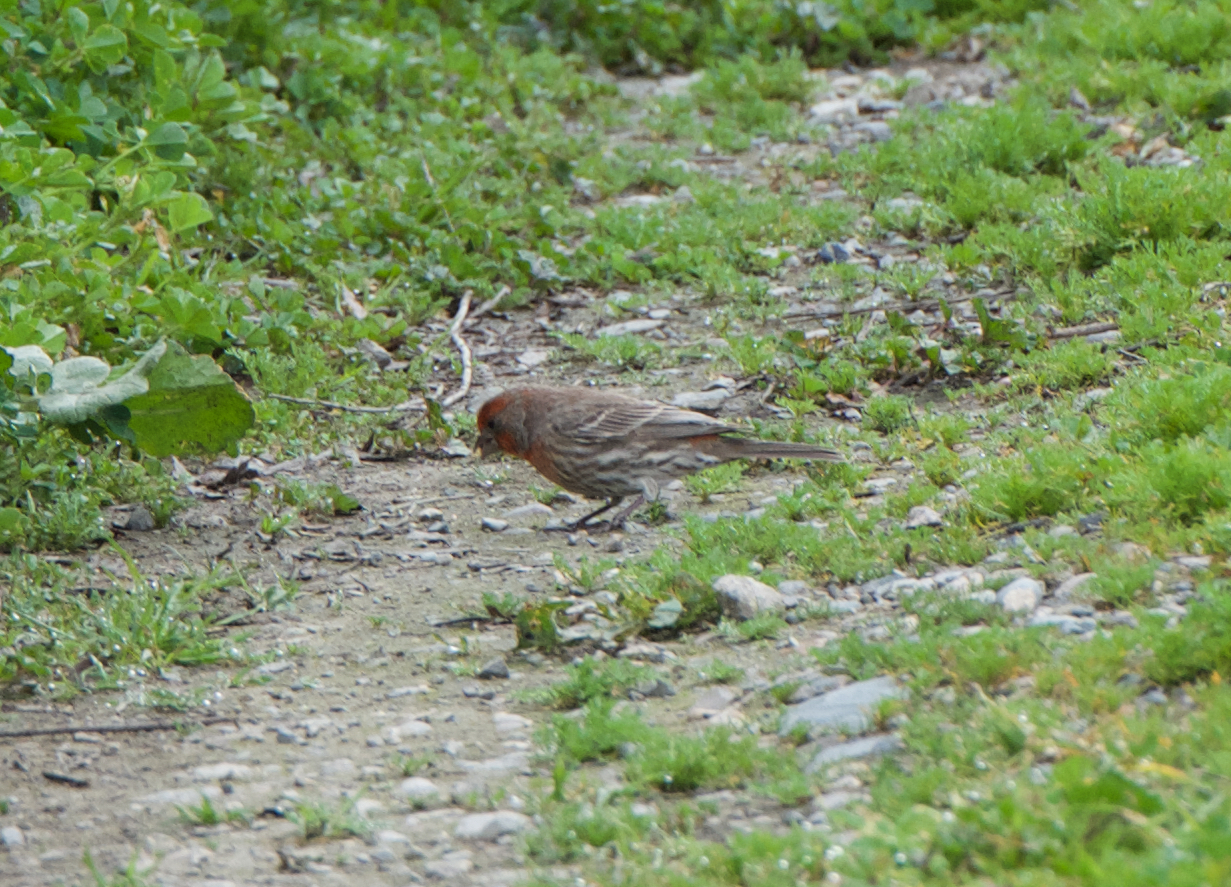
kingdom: Animalia
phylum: Chordata
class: Aves
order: Passeriformes
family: Fringillidae
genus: Haemorhous
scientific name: Haemorhous mexicanus
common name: House finch
